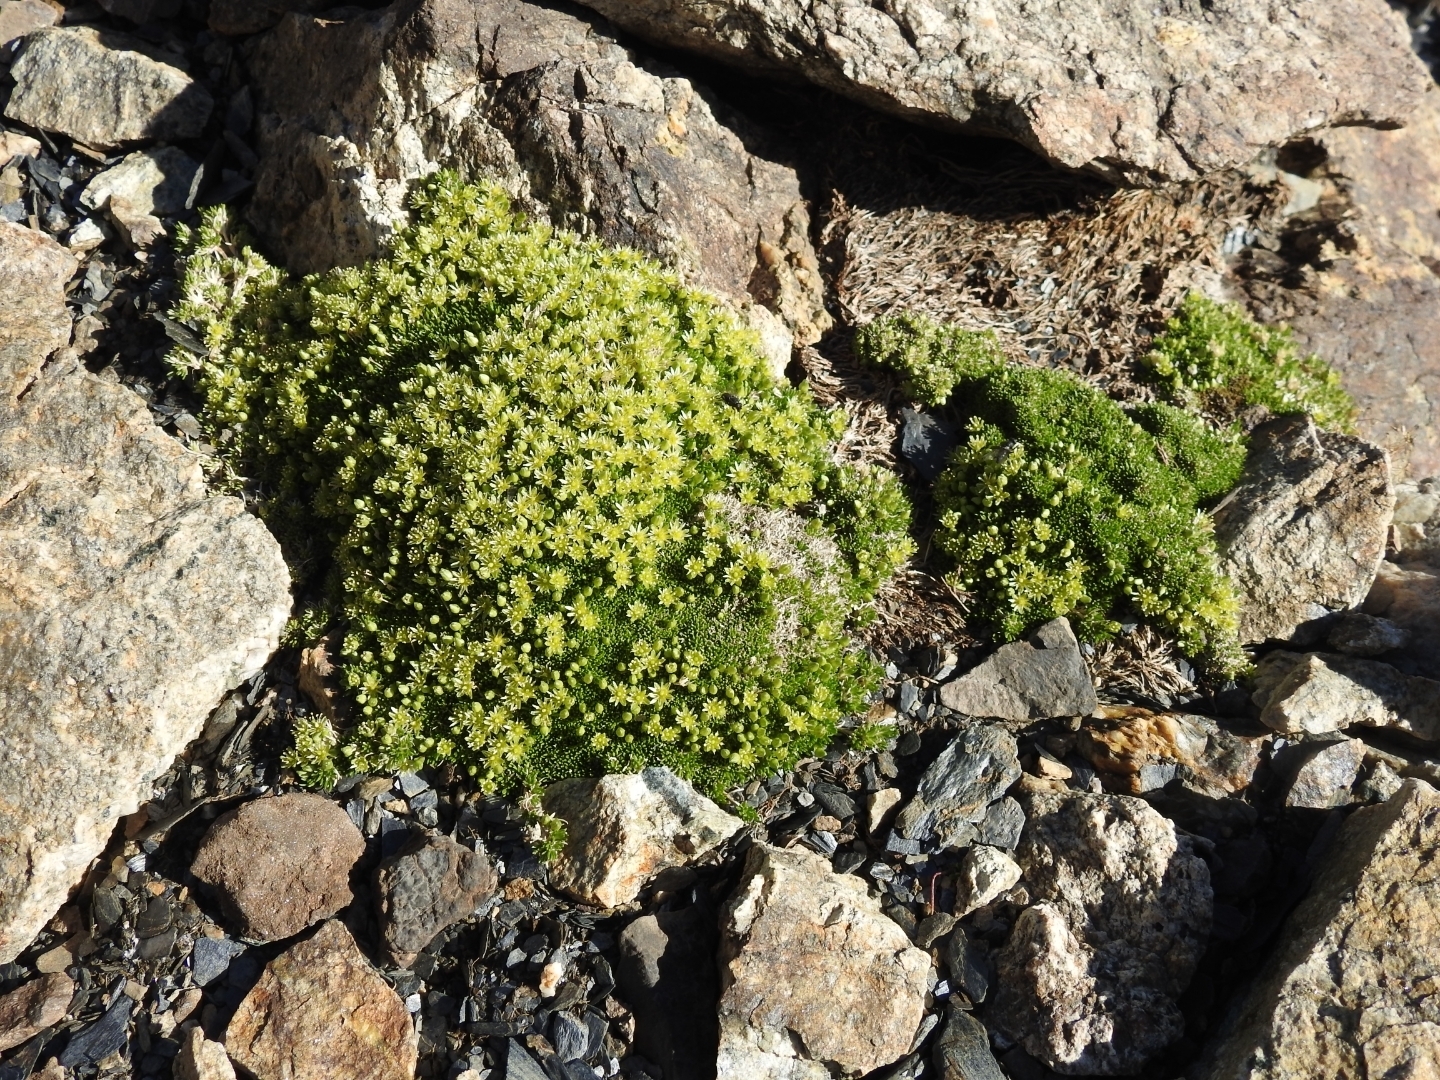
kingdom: Plantae
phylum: Tracheophyta
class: Magnoliopsida
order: Caryophyllales
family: Caryophyllaceae
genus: Cherleria
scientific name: Cherleria sedoides
